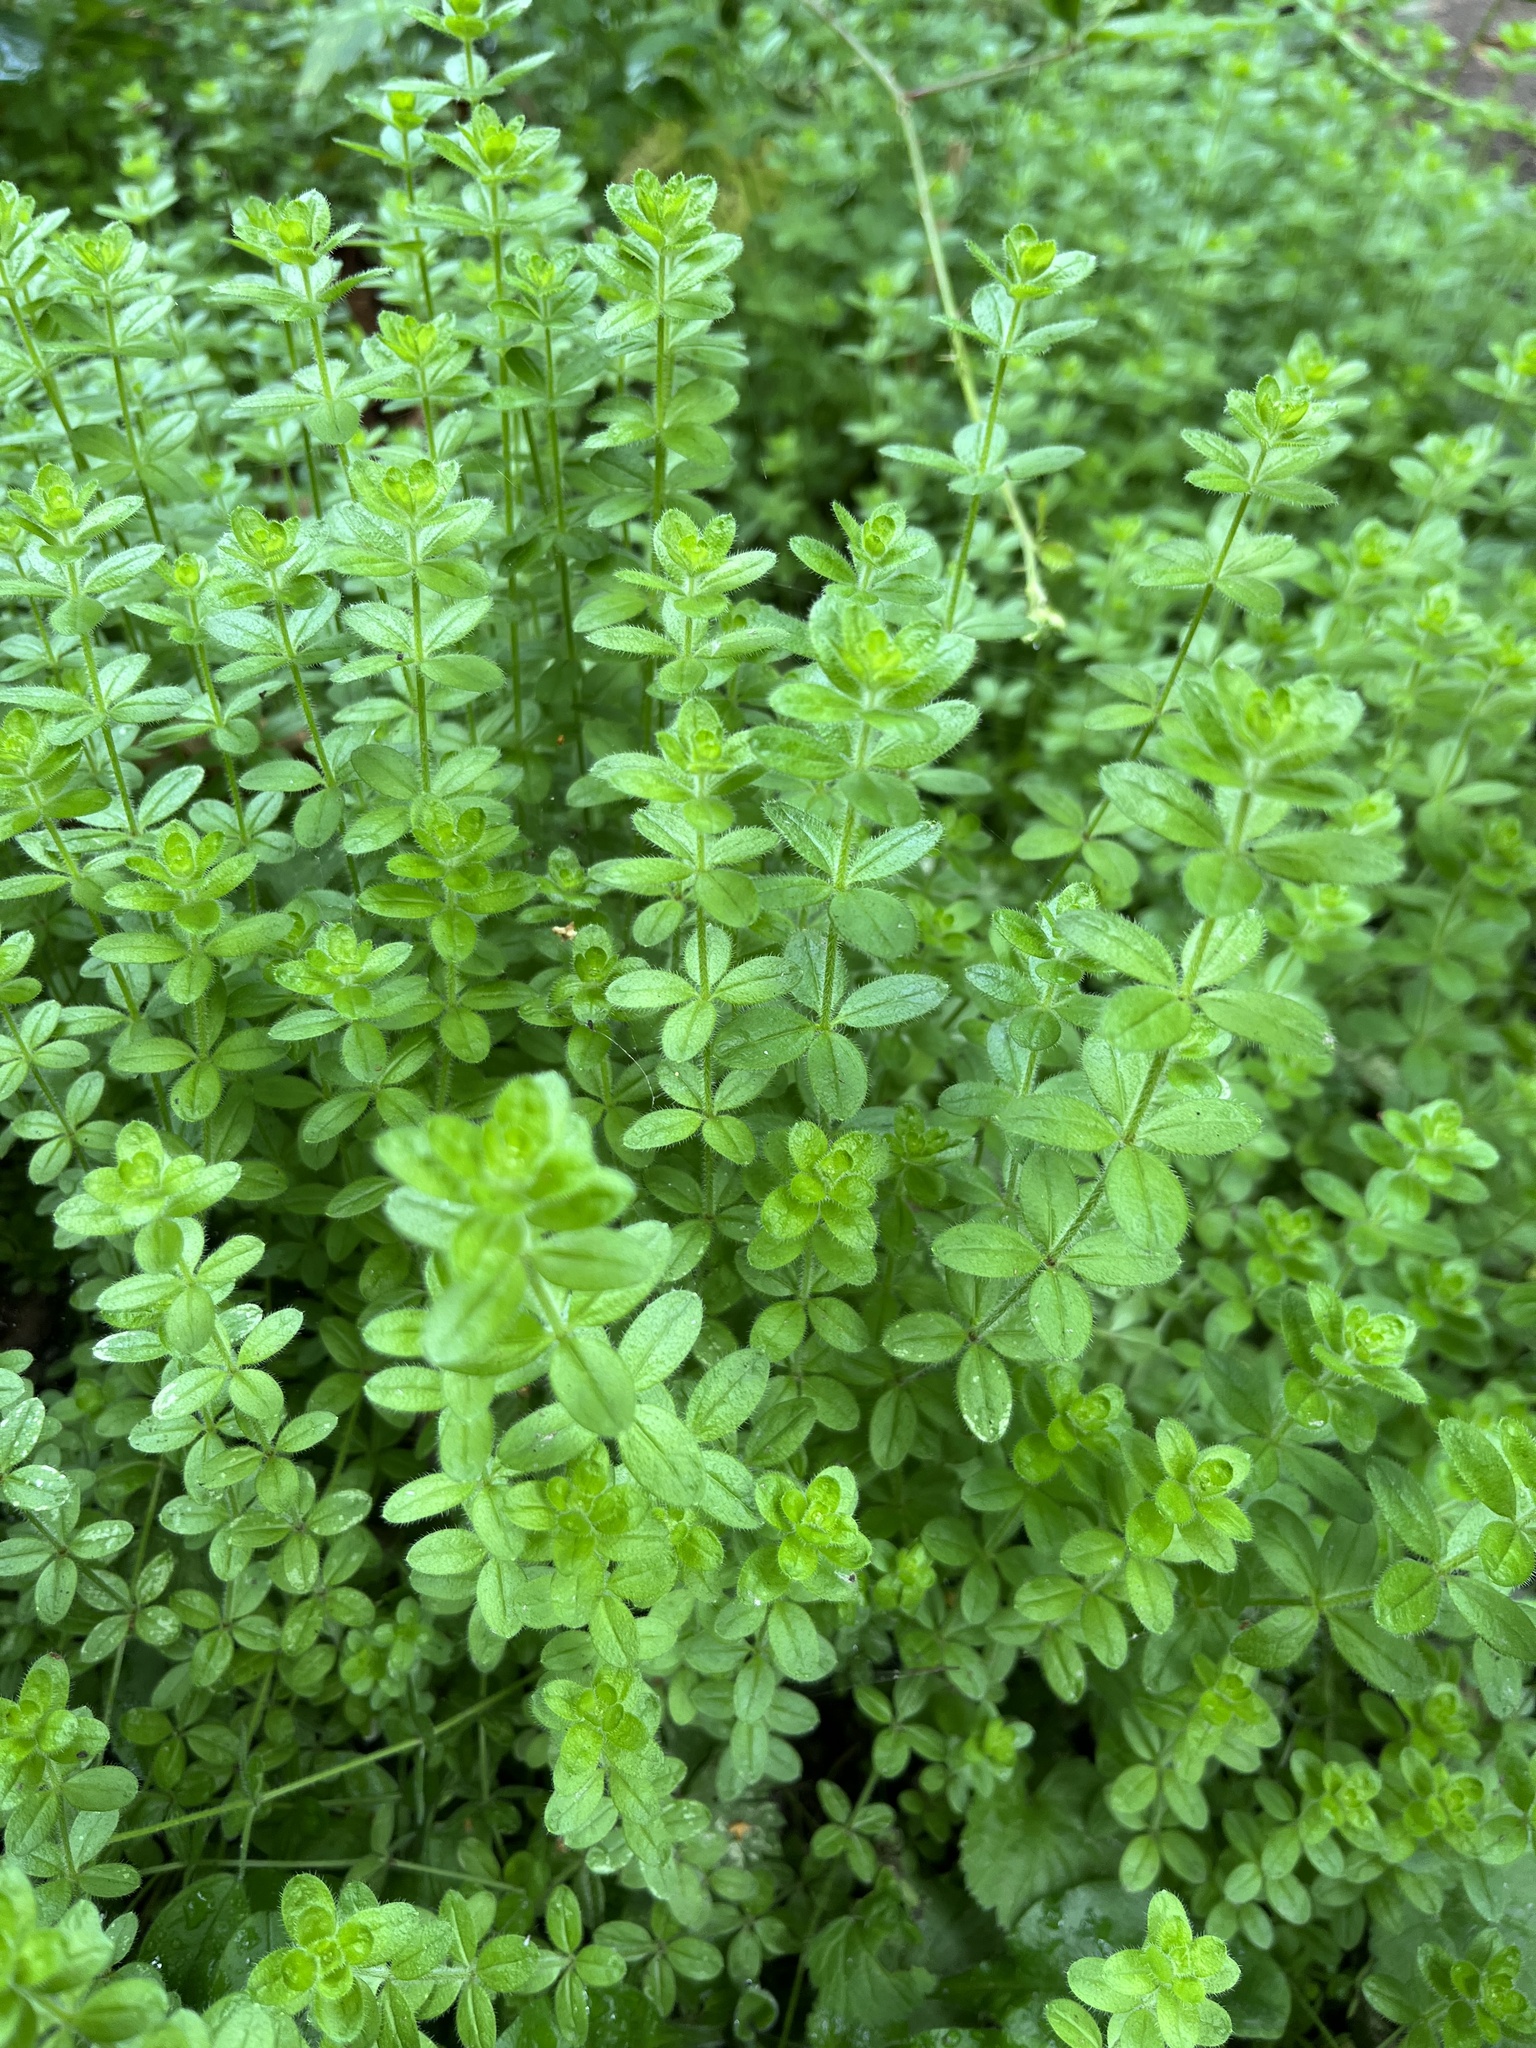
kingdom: Plantae
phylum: Tracheophyta
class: Magnoliopsida
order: Gentianales
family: Rubiaceae
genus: Cruciata
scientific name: Cruciata laevipes
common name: Crosswort
